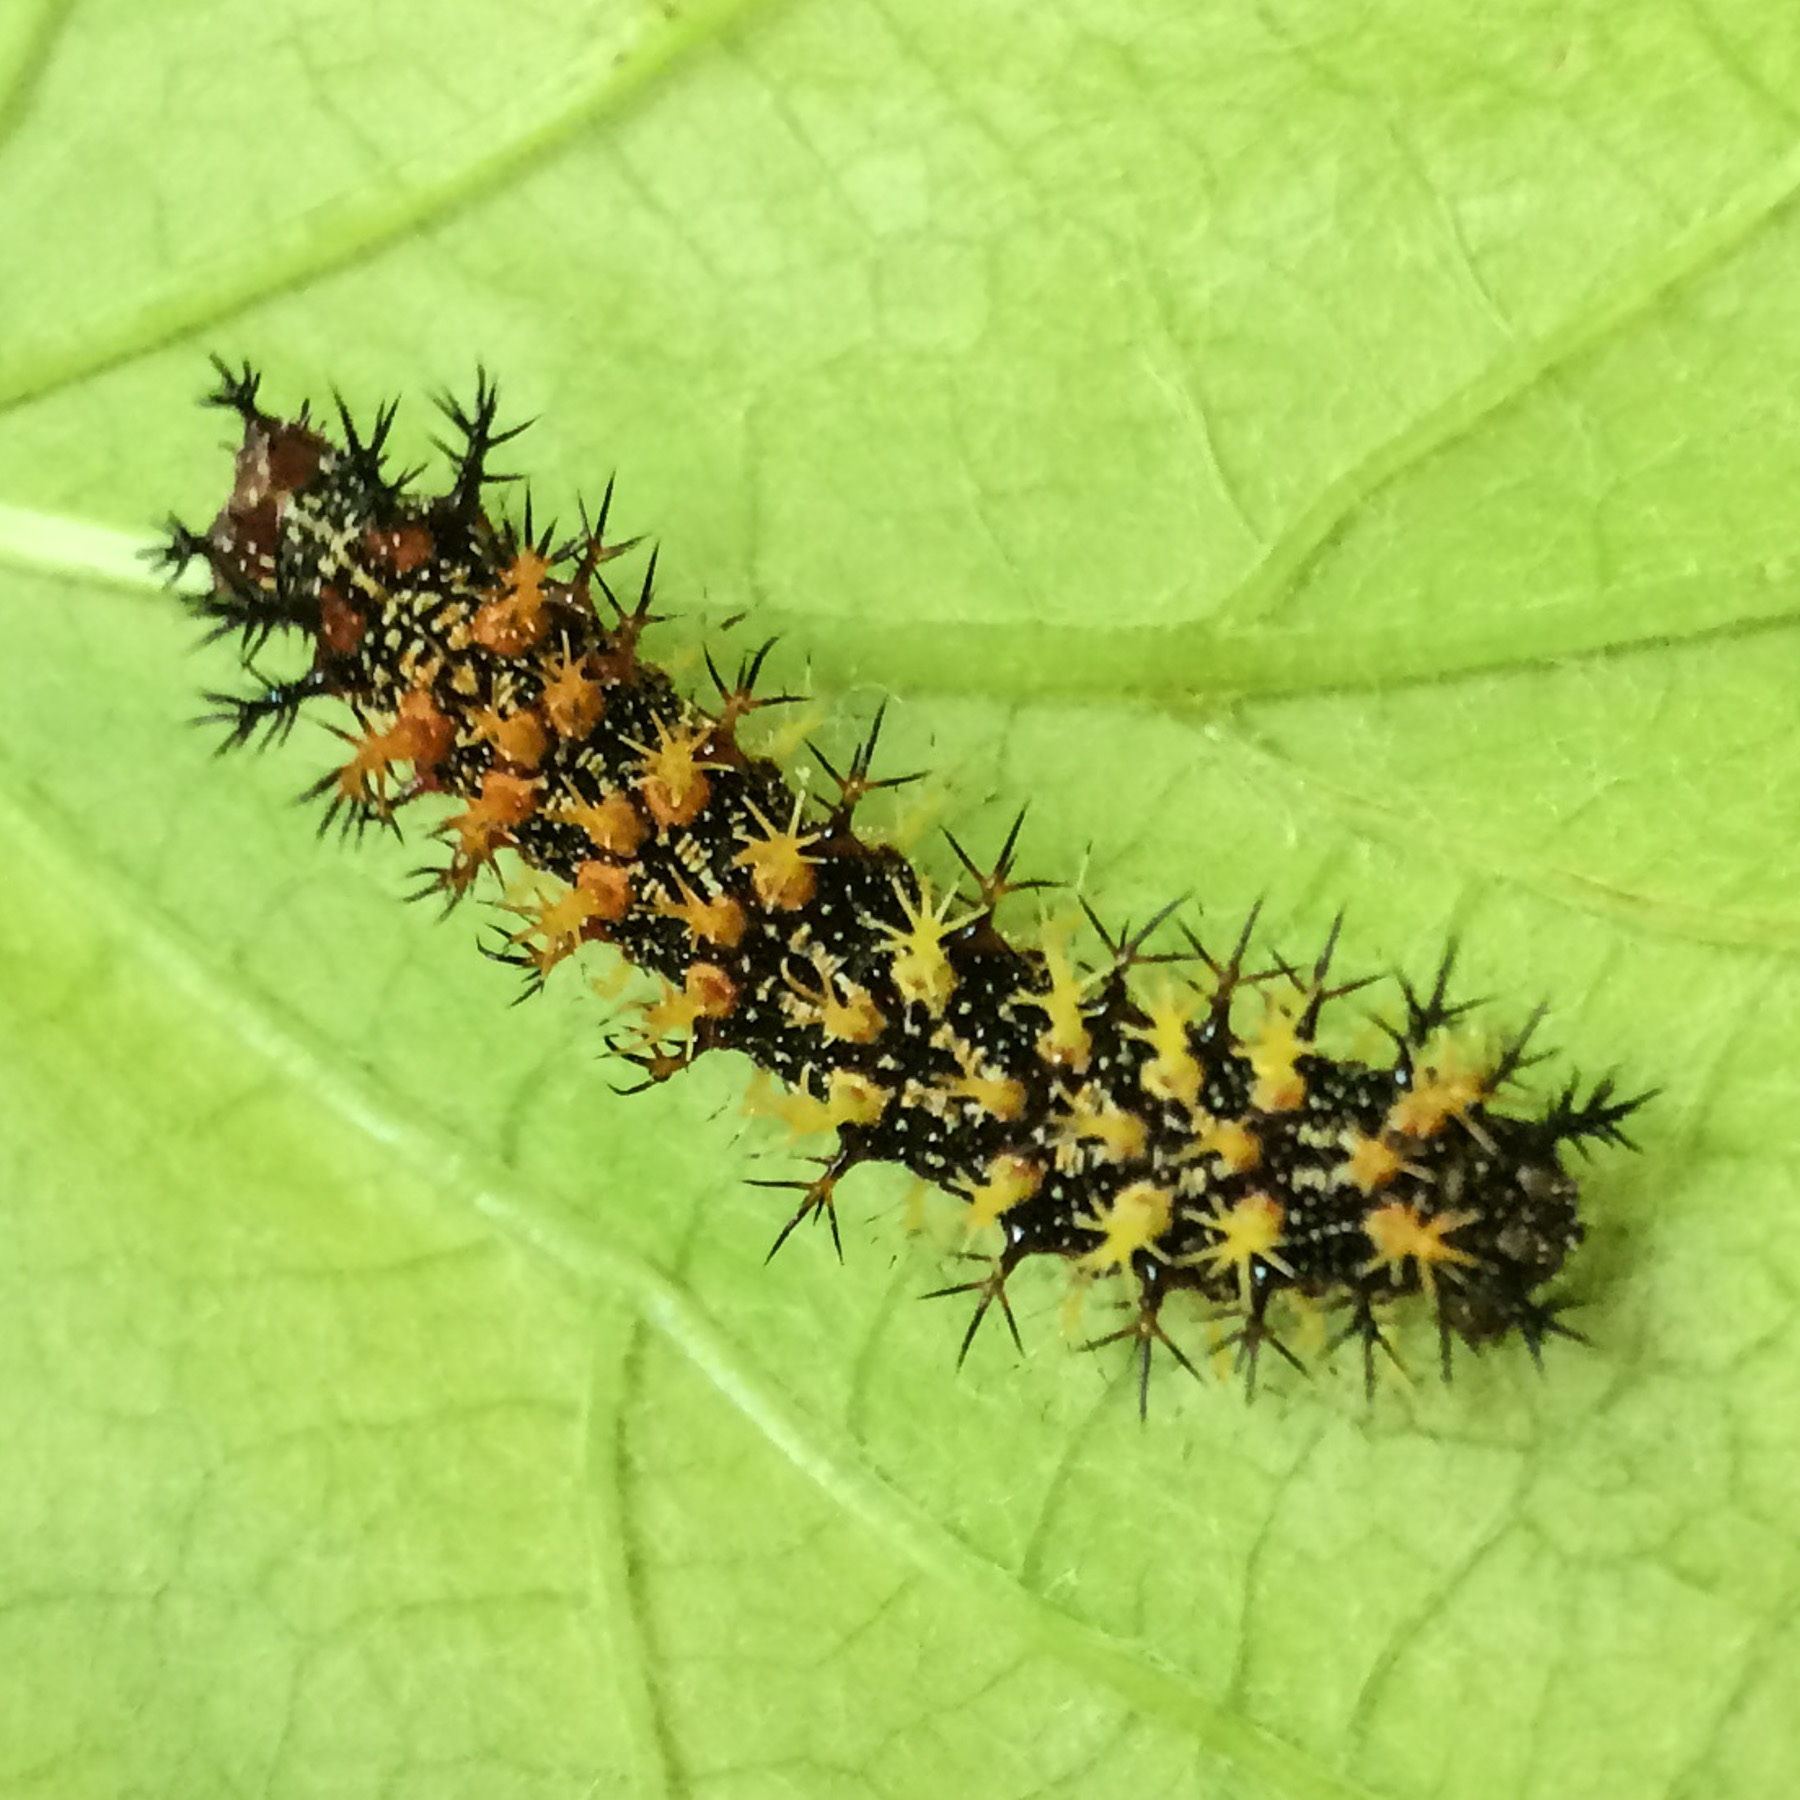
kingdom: Animalia
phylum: Arthropoda
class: Insecta
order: Lepidoptera
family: Nymphalidae
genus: Polygonia
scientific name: Polygonia interrogationis
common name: Question mark
